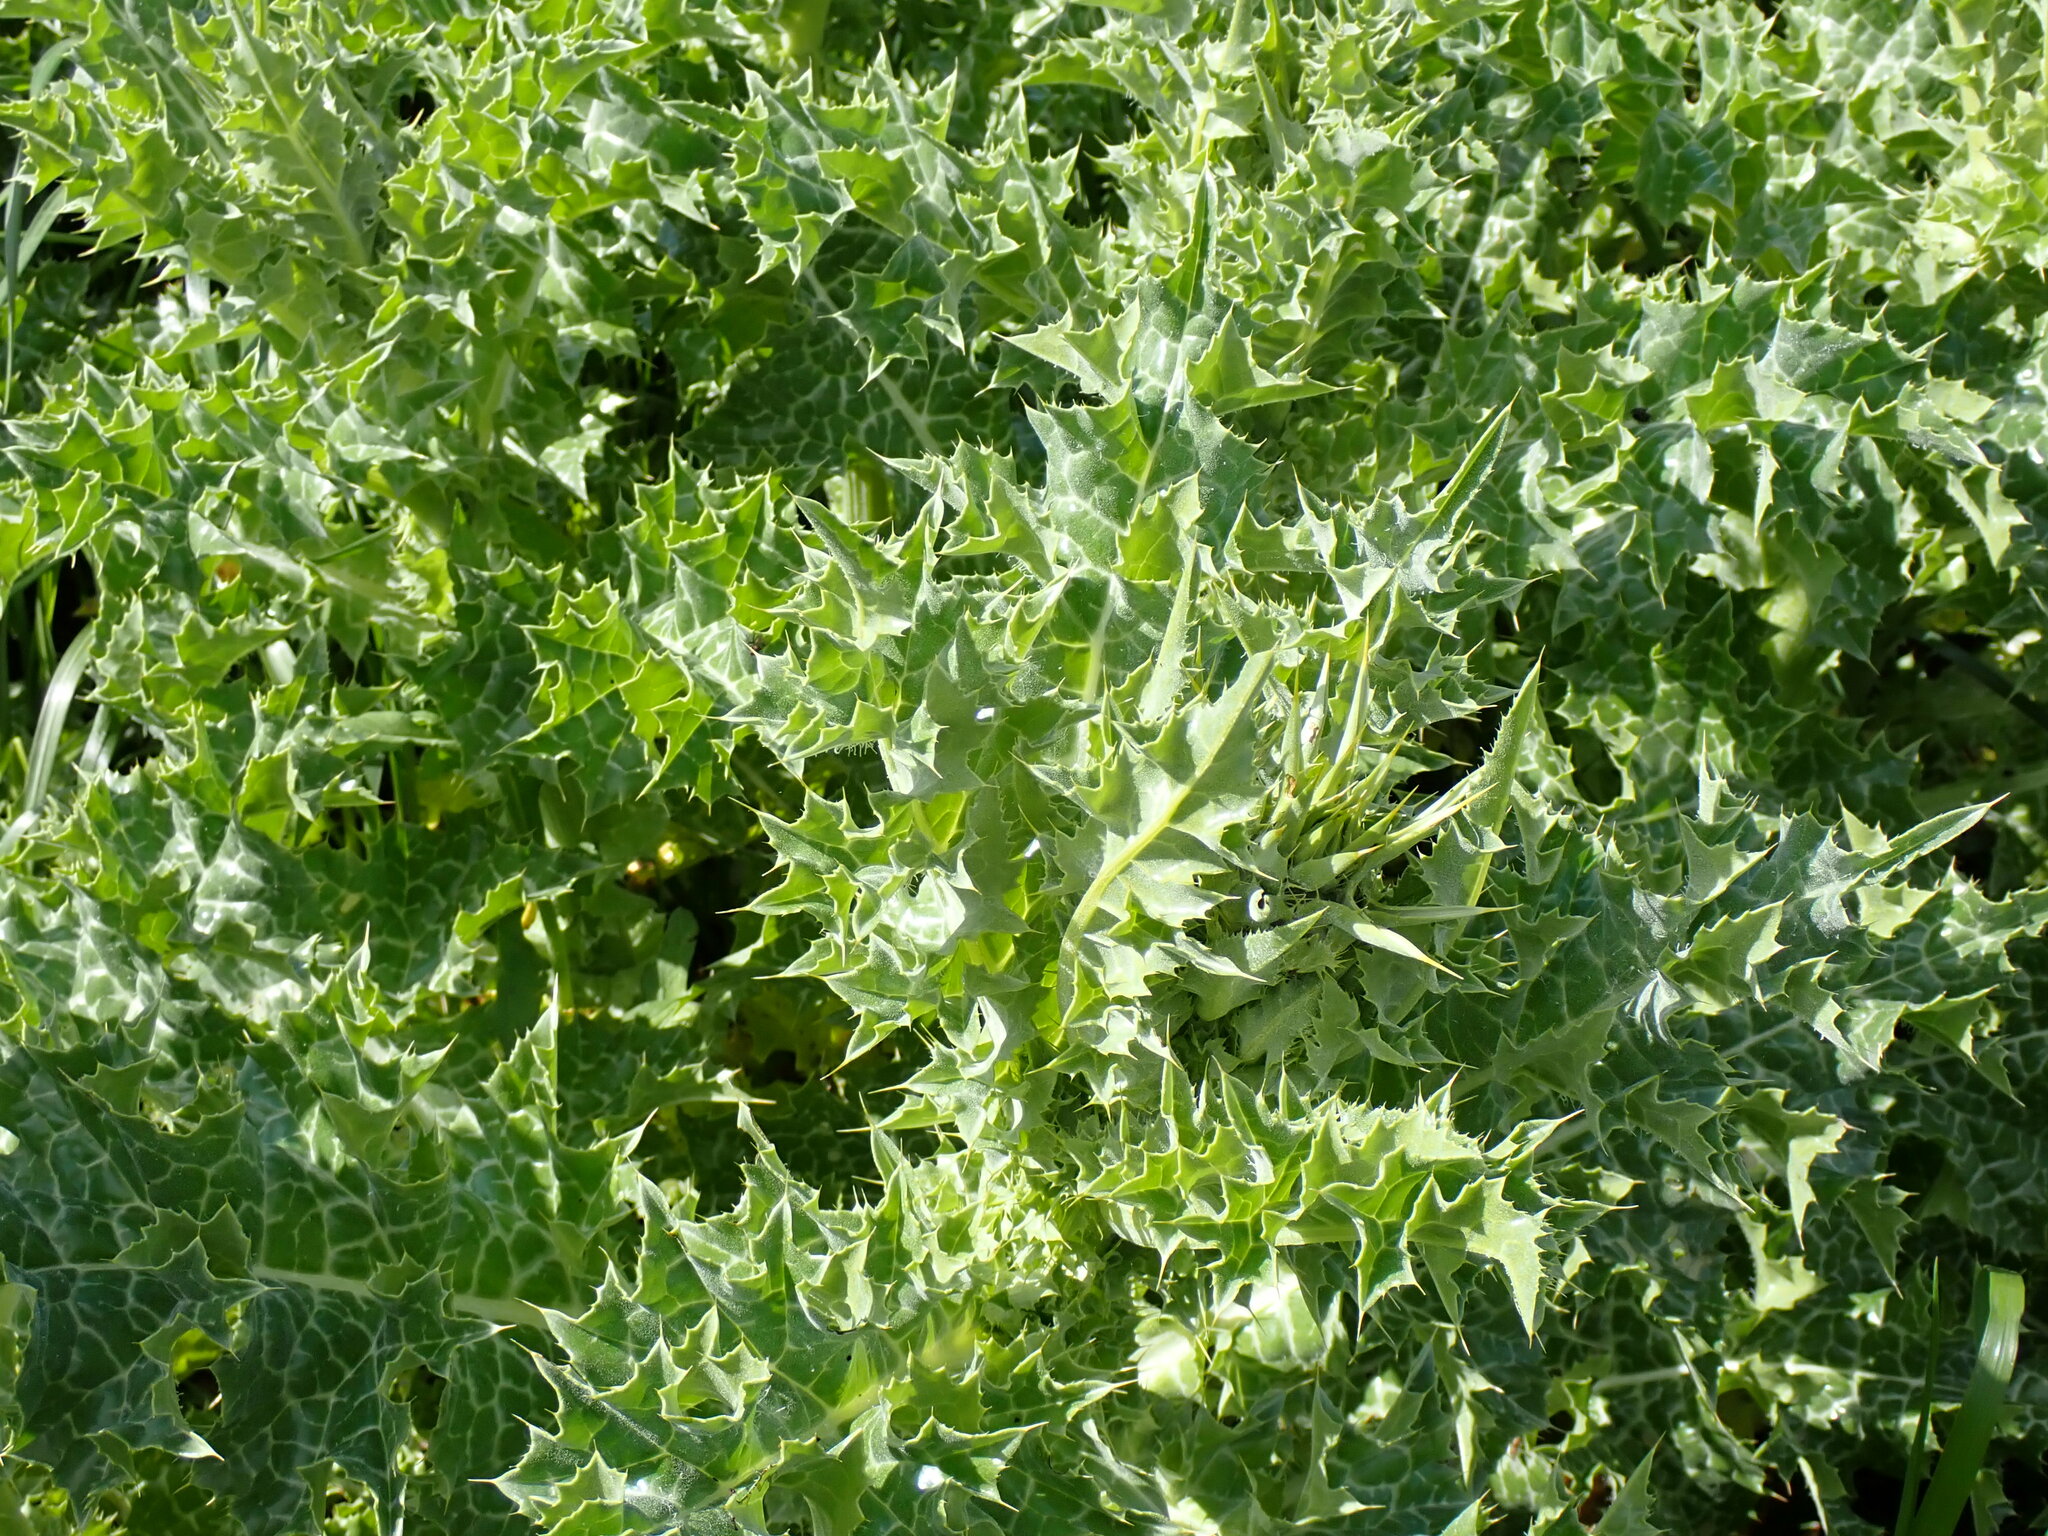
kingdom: Plantae
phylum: Tracheophyta
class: Magnoliopsida
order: Asterales
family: Asteraceae
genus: Silybum
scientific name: Silybum marianum
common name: Milk thistle
